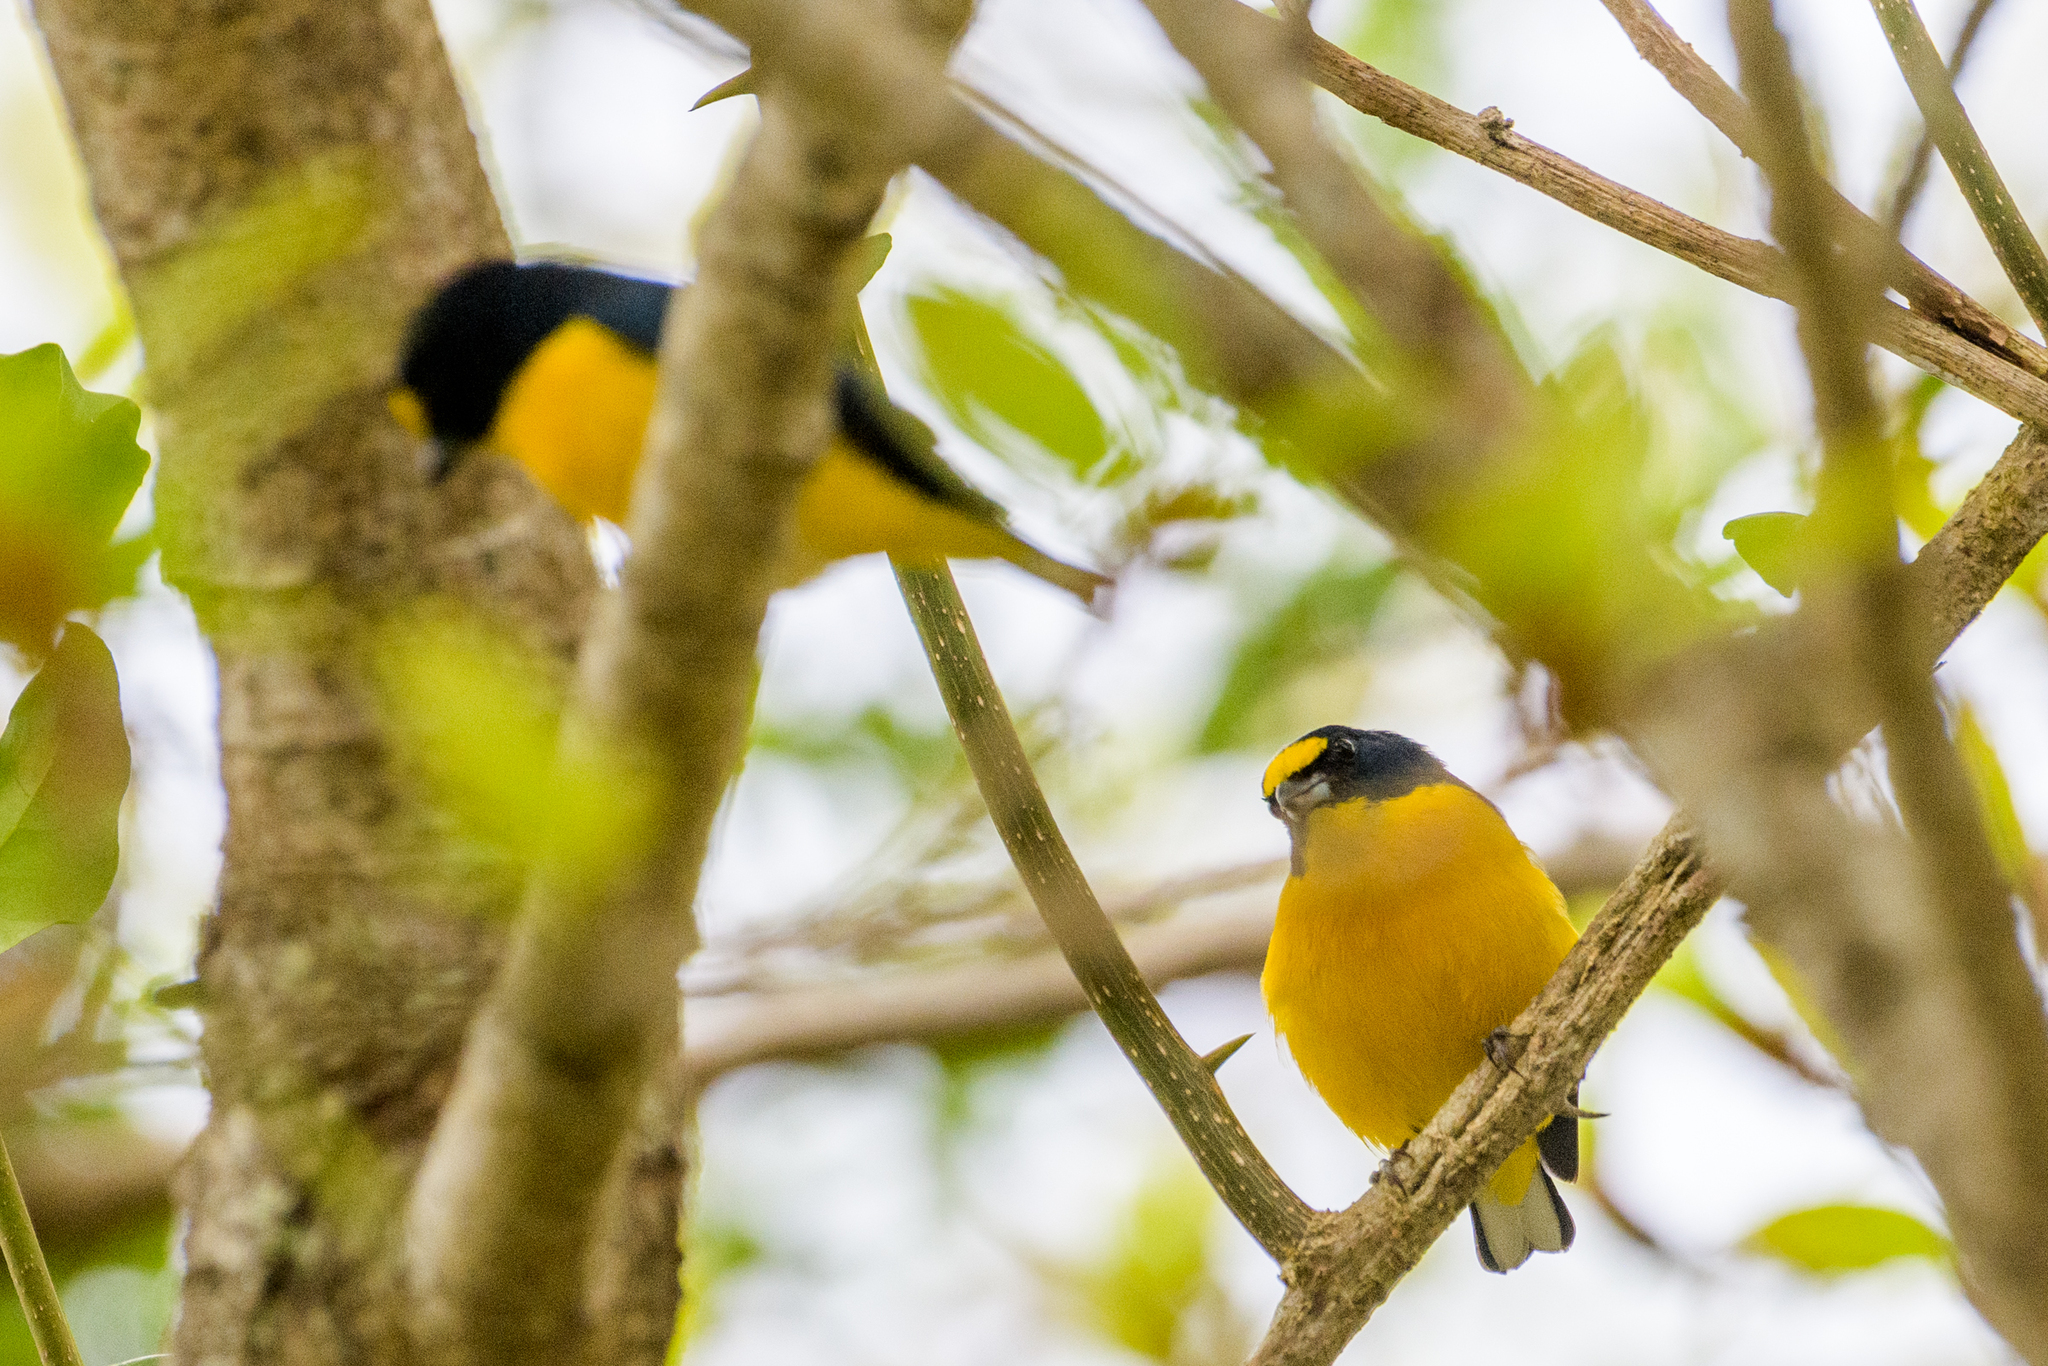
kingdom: Animalia
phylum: Chordata
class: Aves
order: Passeriformes
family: Fringillidae
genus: Euphonia
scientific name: Euphonia hirundinacea
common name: Yellow-throated euphonia
